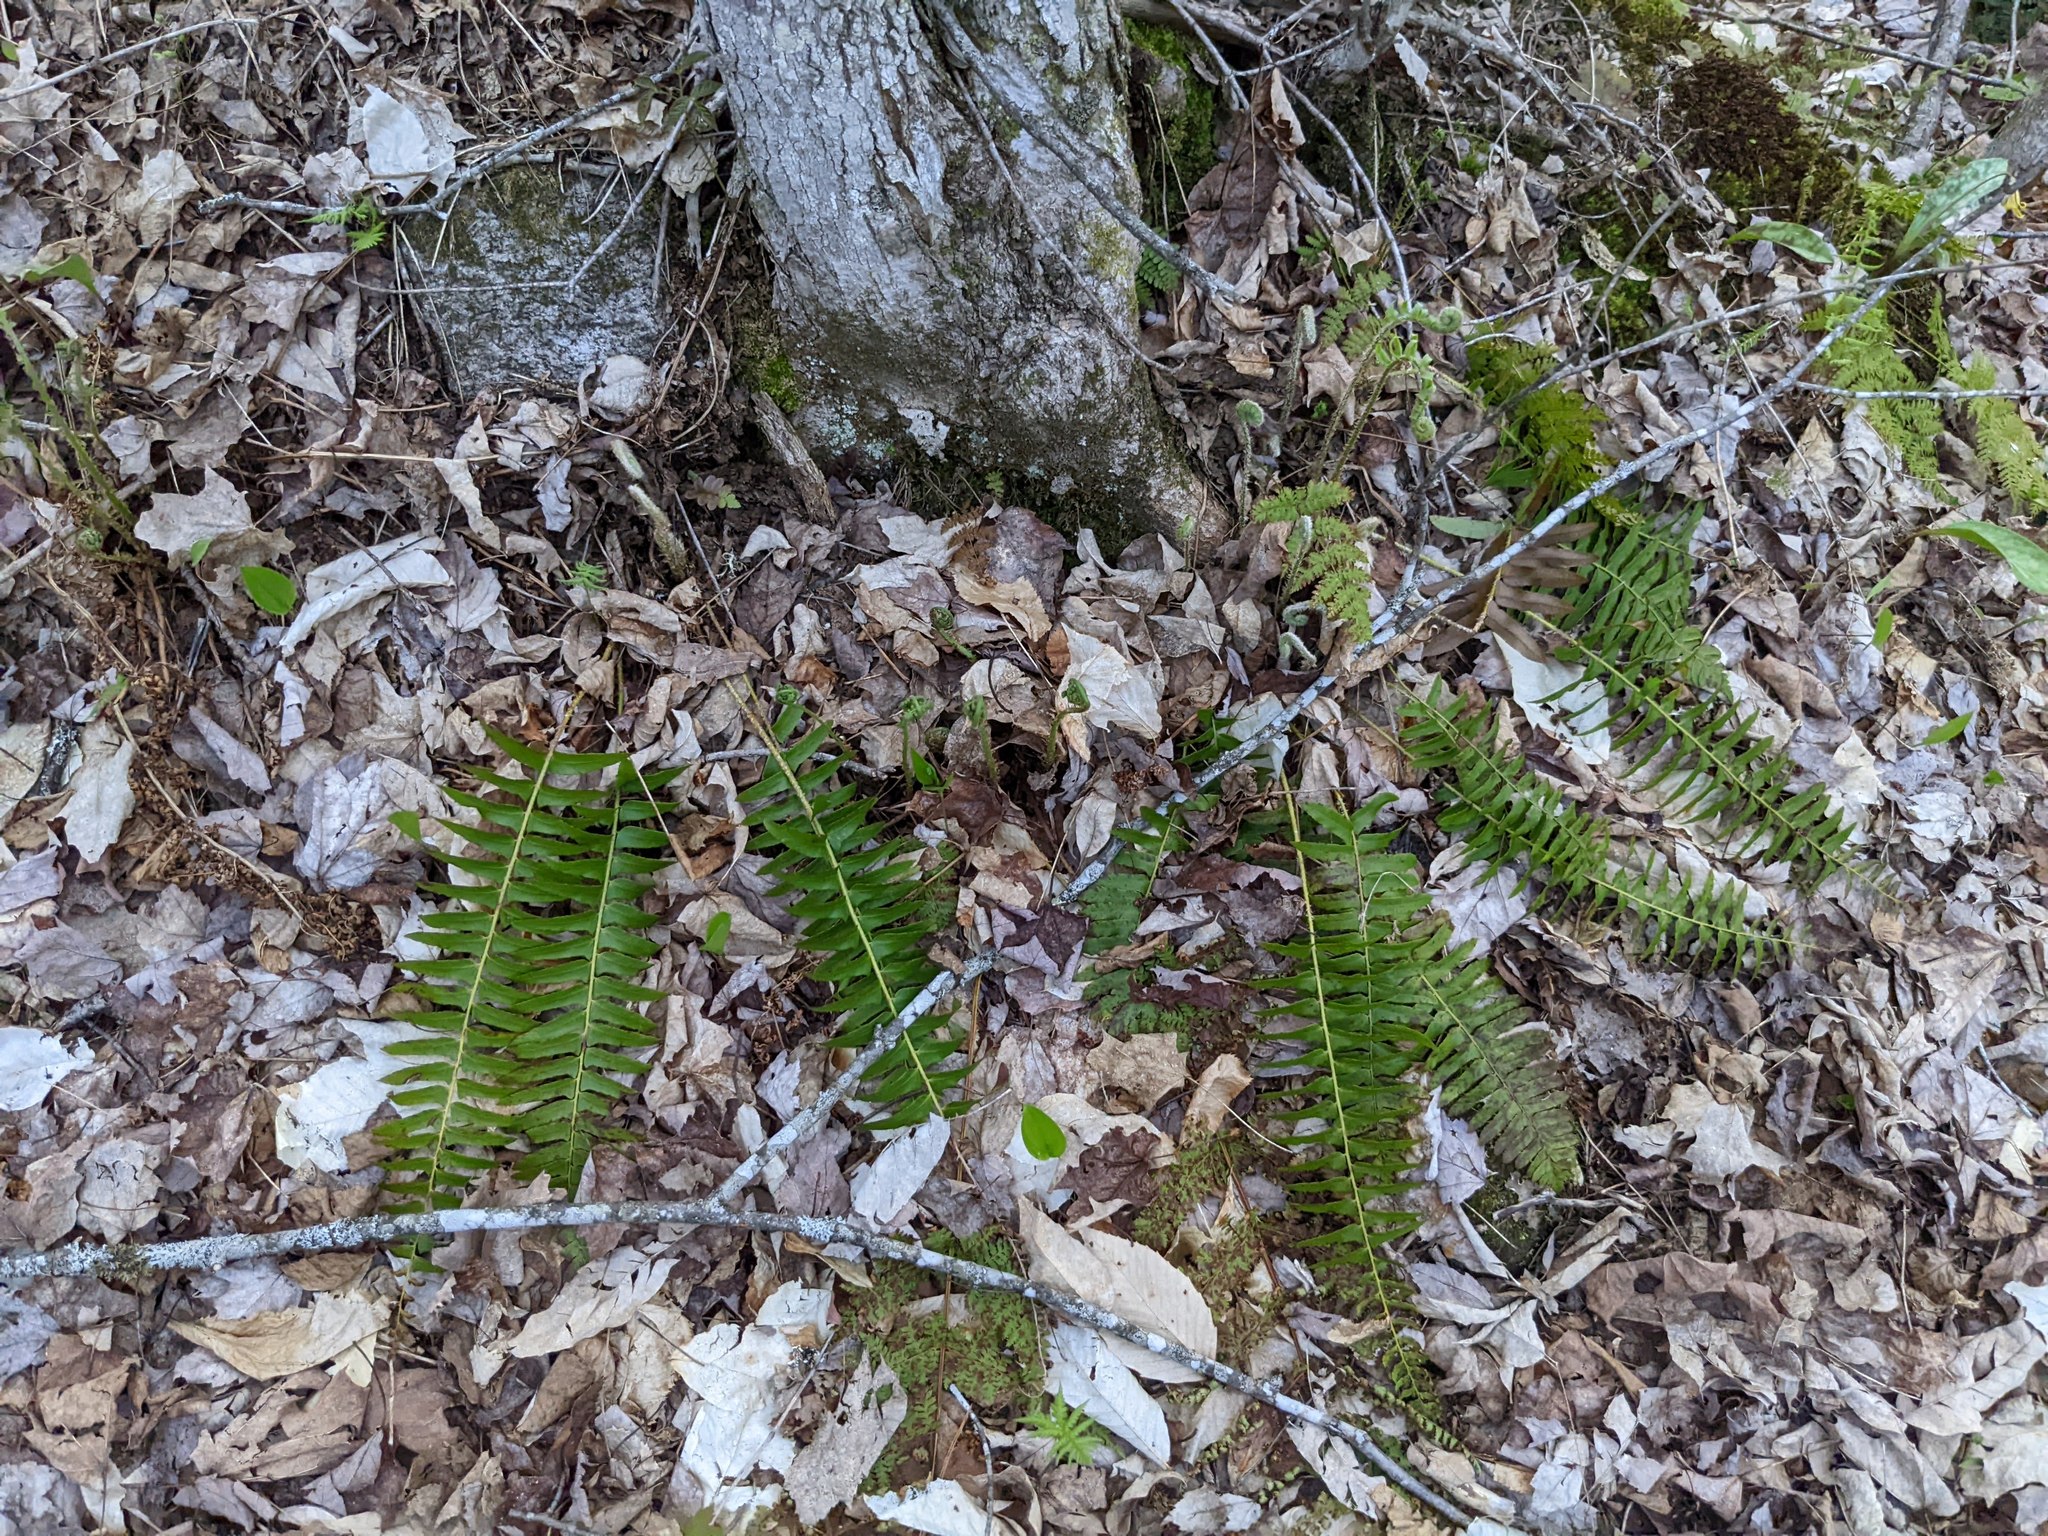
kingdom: Plantae
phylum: Tracheophyta
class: Polypodiopsida
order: Polypodiales
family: Dryopteridaceae
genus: Polystichum
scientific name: Polystichum acrostichoides
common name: Christmas fern
